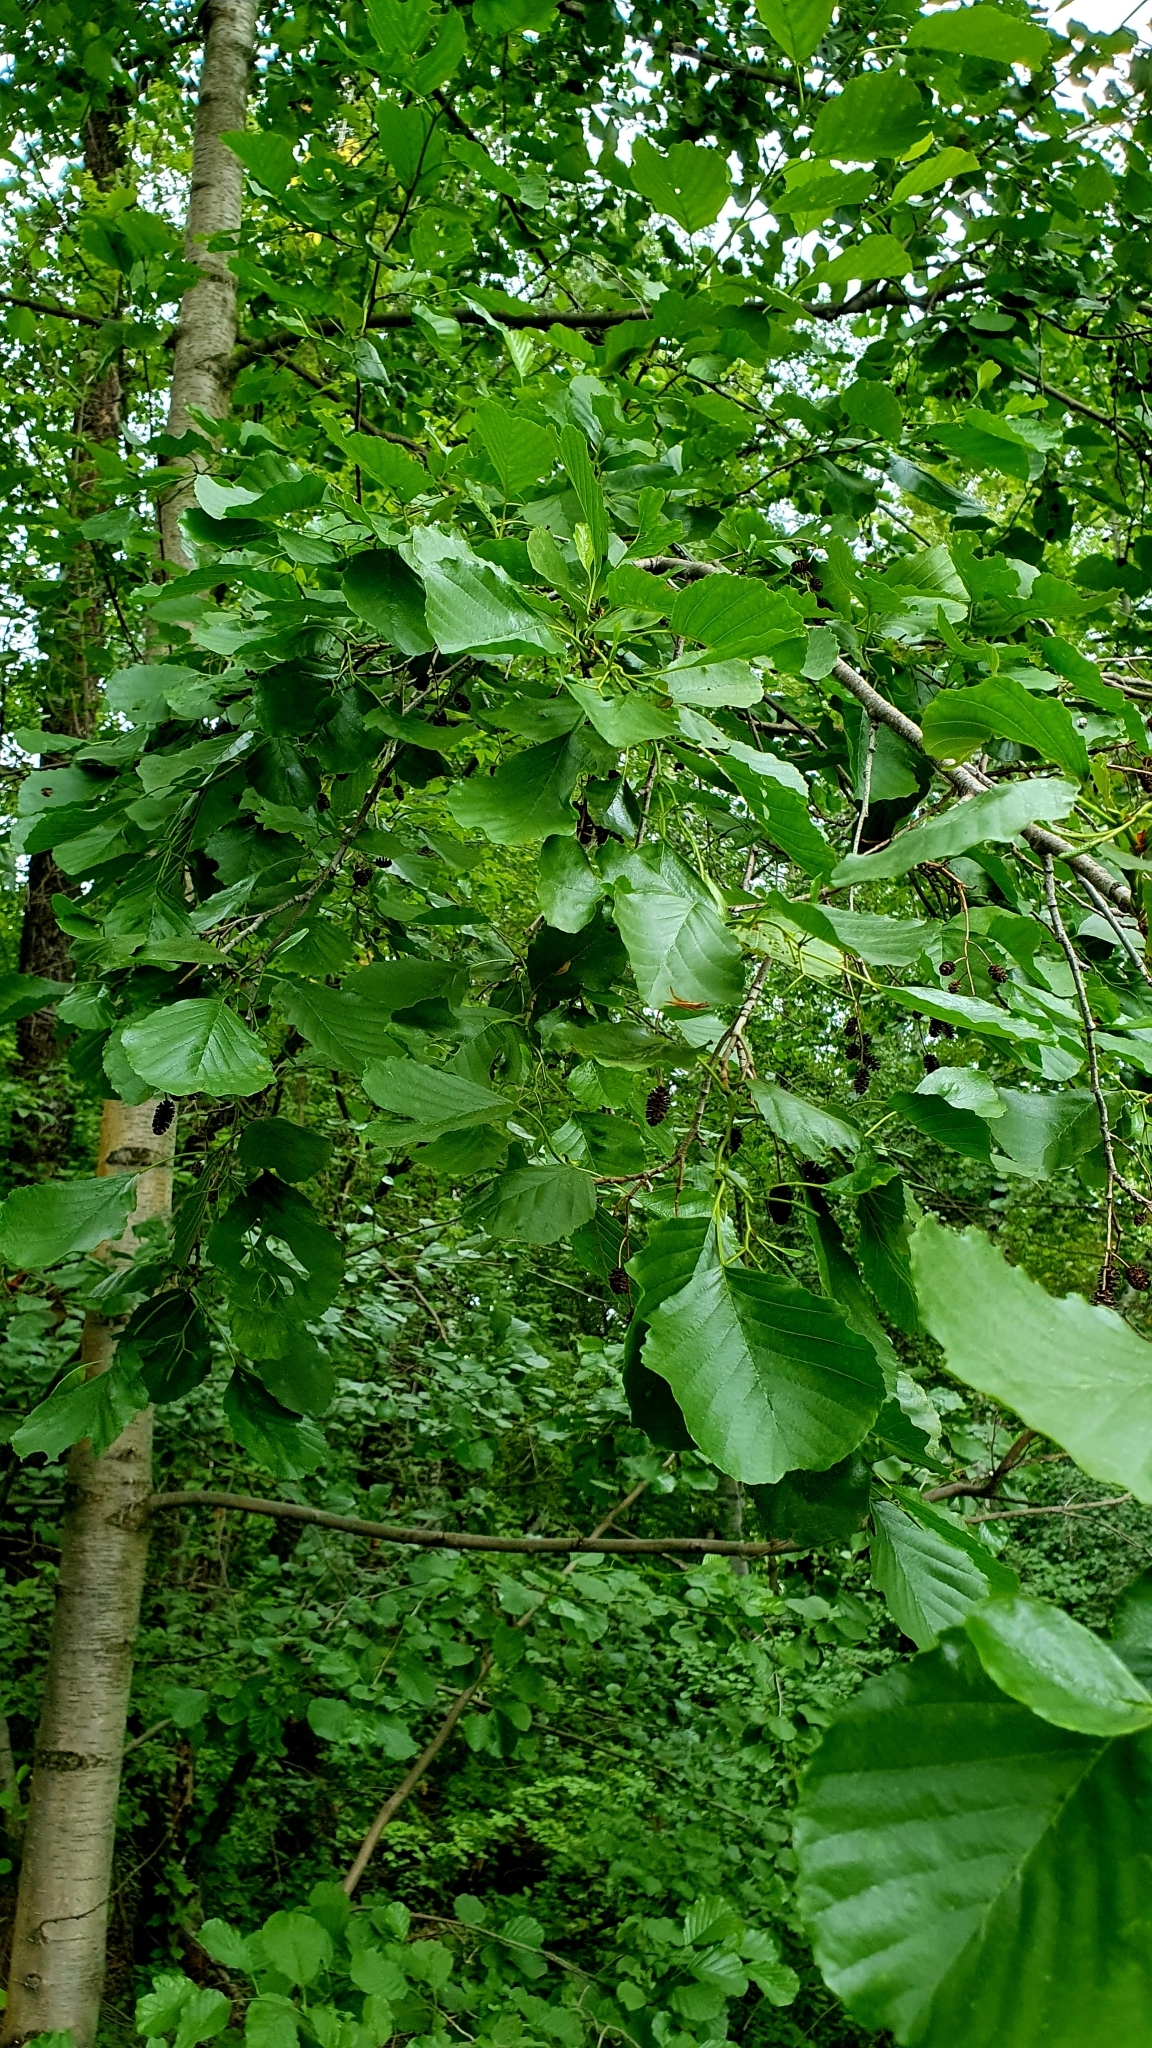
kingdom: Plantae
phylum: Tracheophyta
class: Magnoliopsida
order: Fagales
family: Betulaceae
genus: Alnus
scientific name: Alnus glutinosa
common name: Black alder
